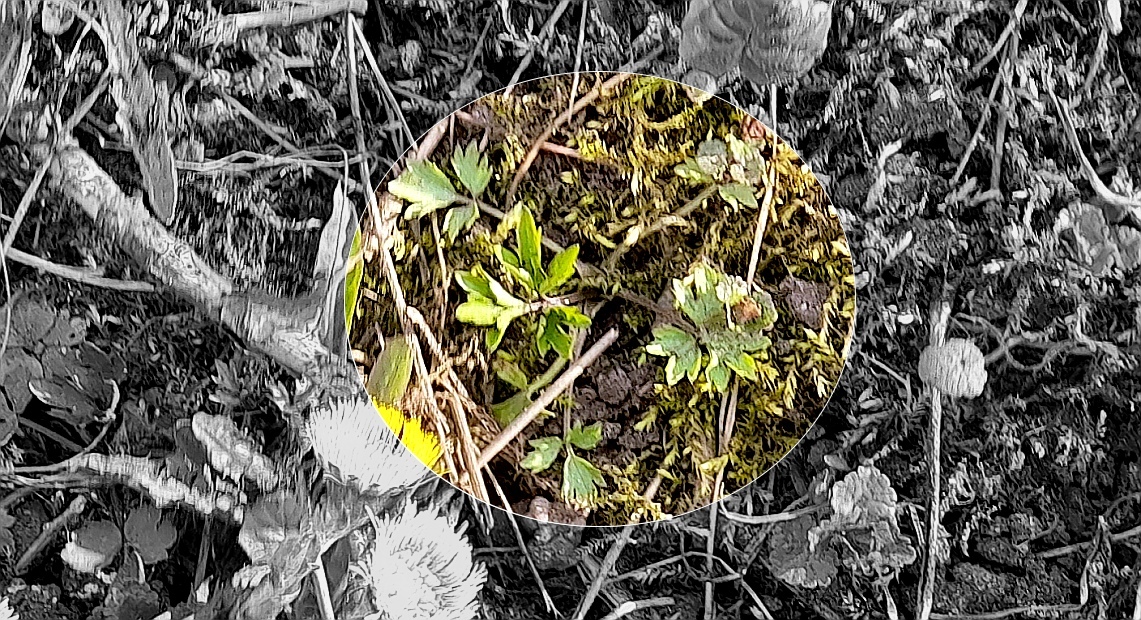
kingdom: Plantae
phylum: Tracheophyta
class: Magnoliopsida
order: Ranunculales
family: Ranunculaceae
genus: Ranunculus
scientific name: Ranunculus repens
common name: Creeping buttercup
